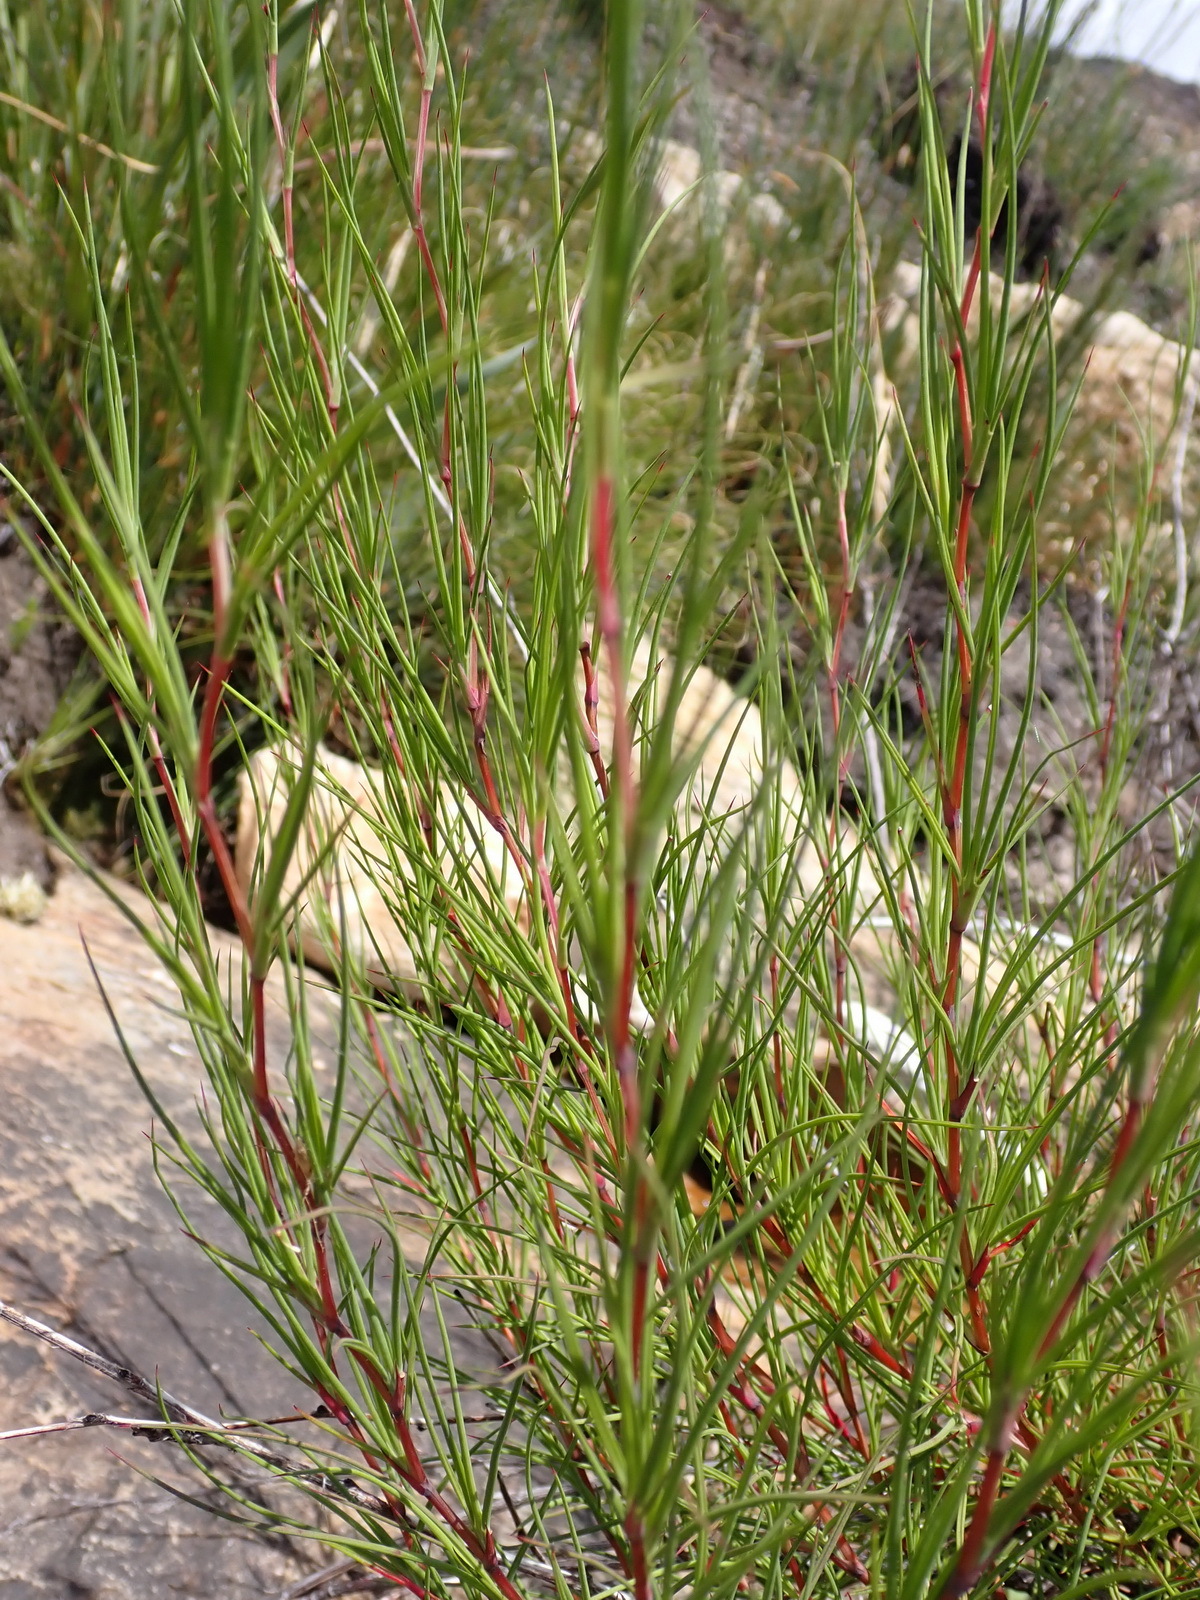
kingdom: Plantae
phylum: Tracheophyta
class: Magnoliopsida
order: Rosales
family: Rosaceae
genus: Cliffortia
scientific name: Cliffortia aculeata
